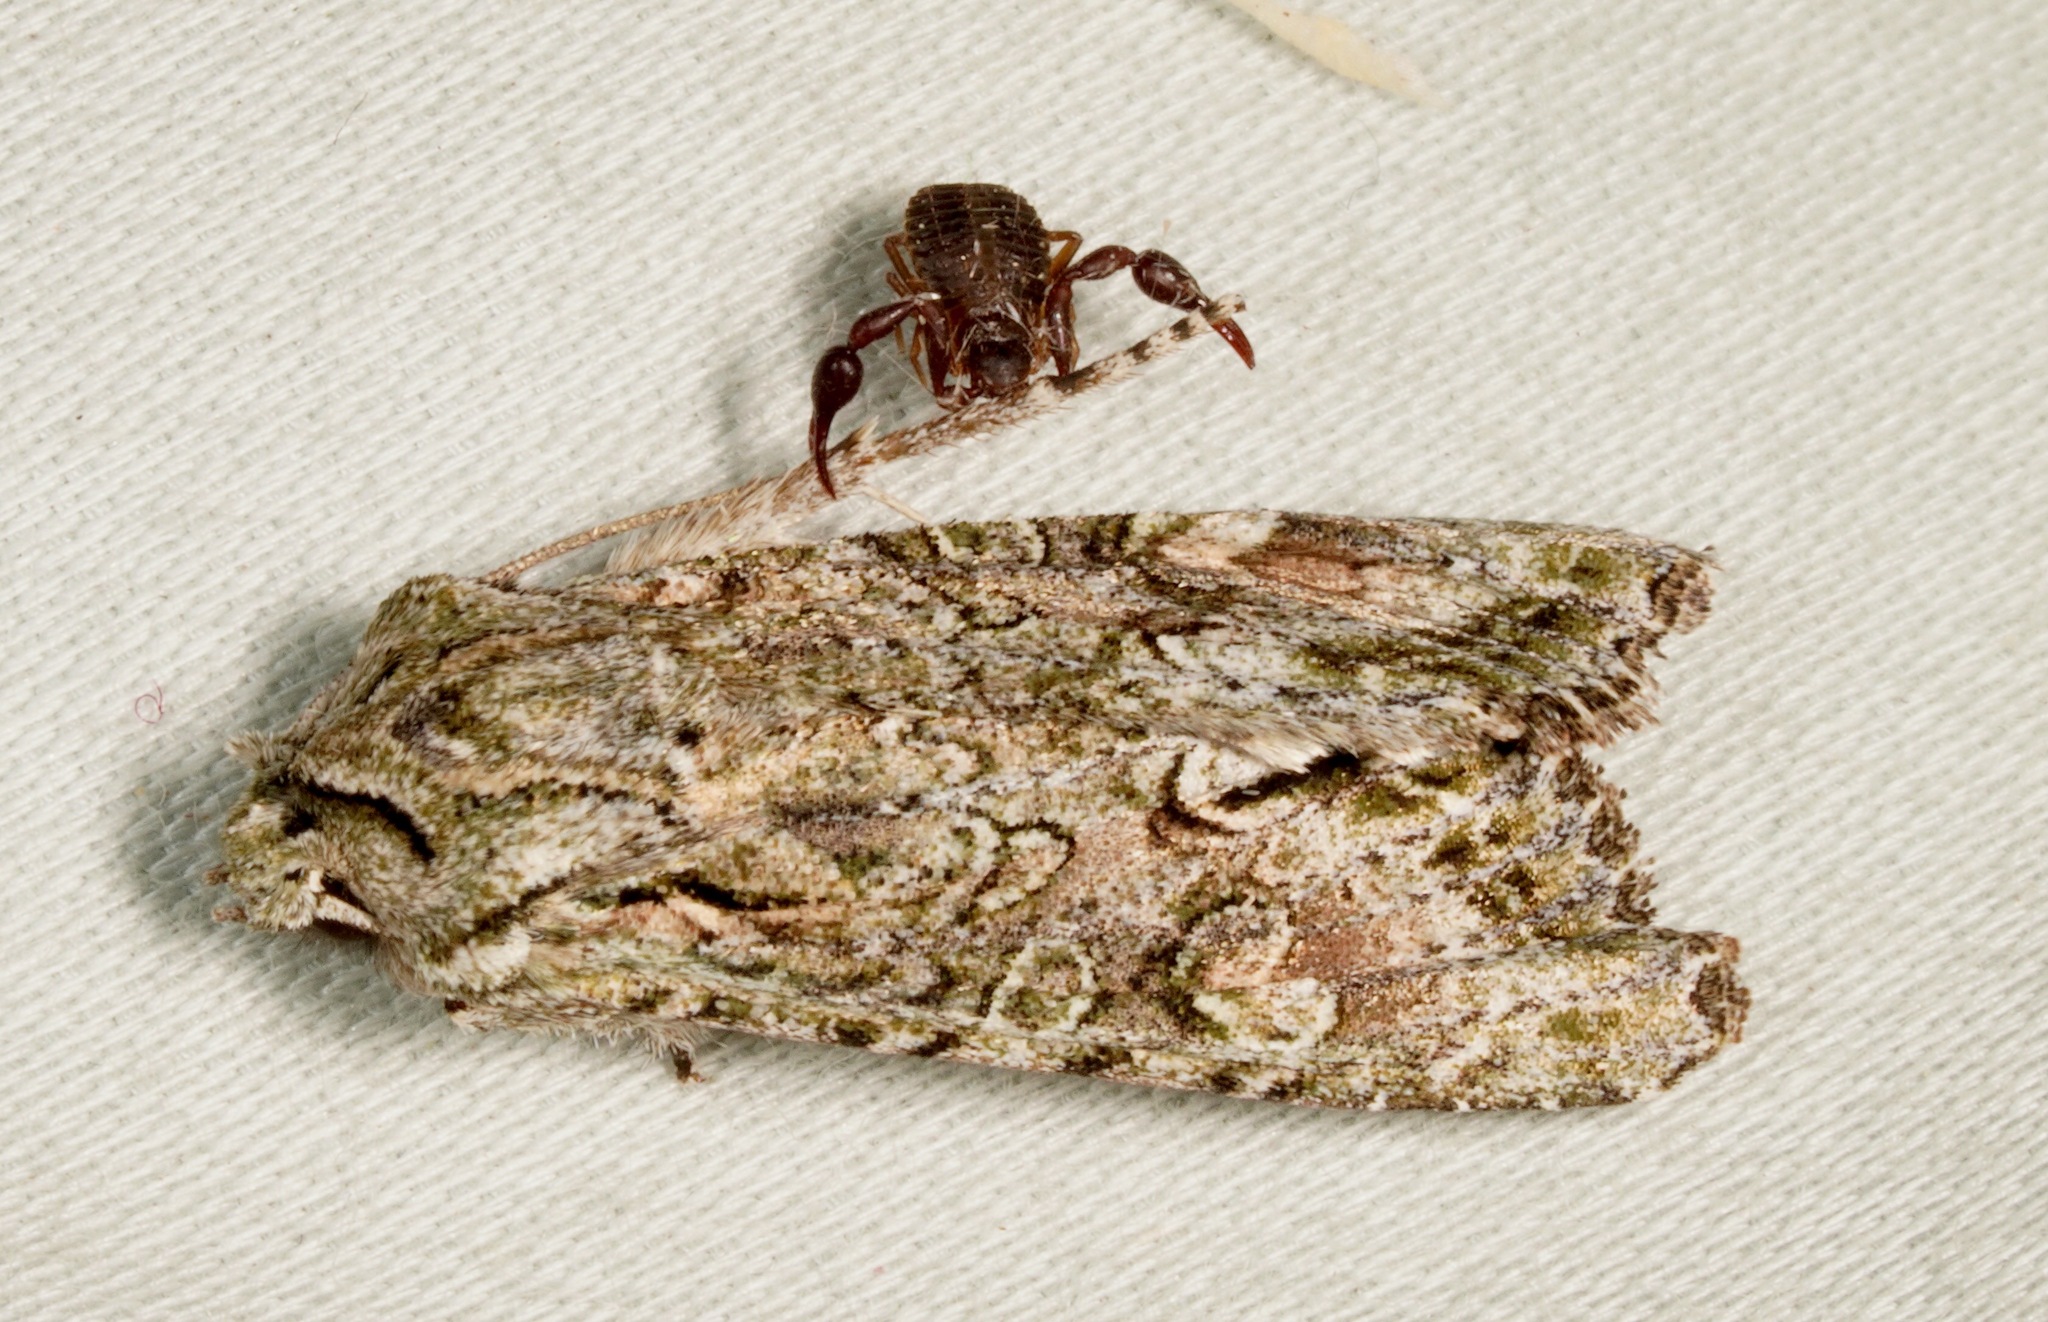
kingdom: Animalia
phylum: Arthropoda
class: Insecta
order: Lepidoptera
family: Noctuidae
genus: Ichneutica
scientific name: Ichneutica mutans
